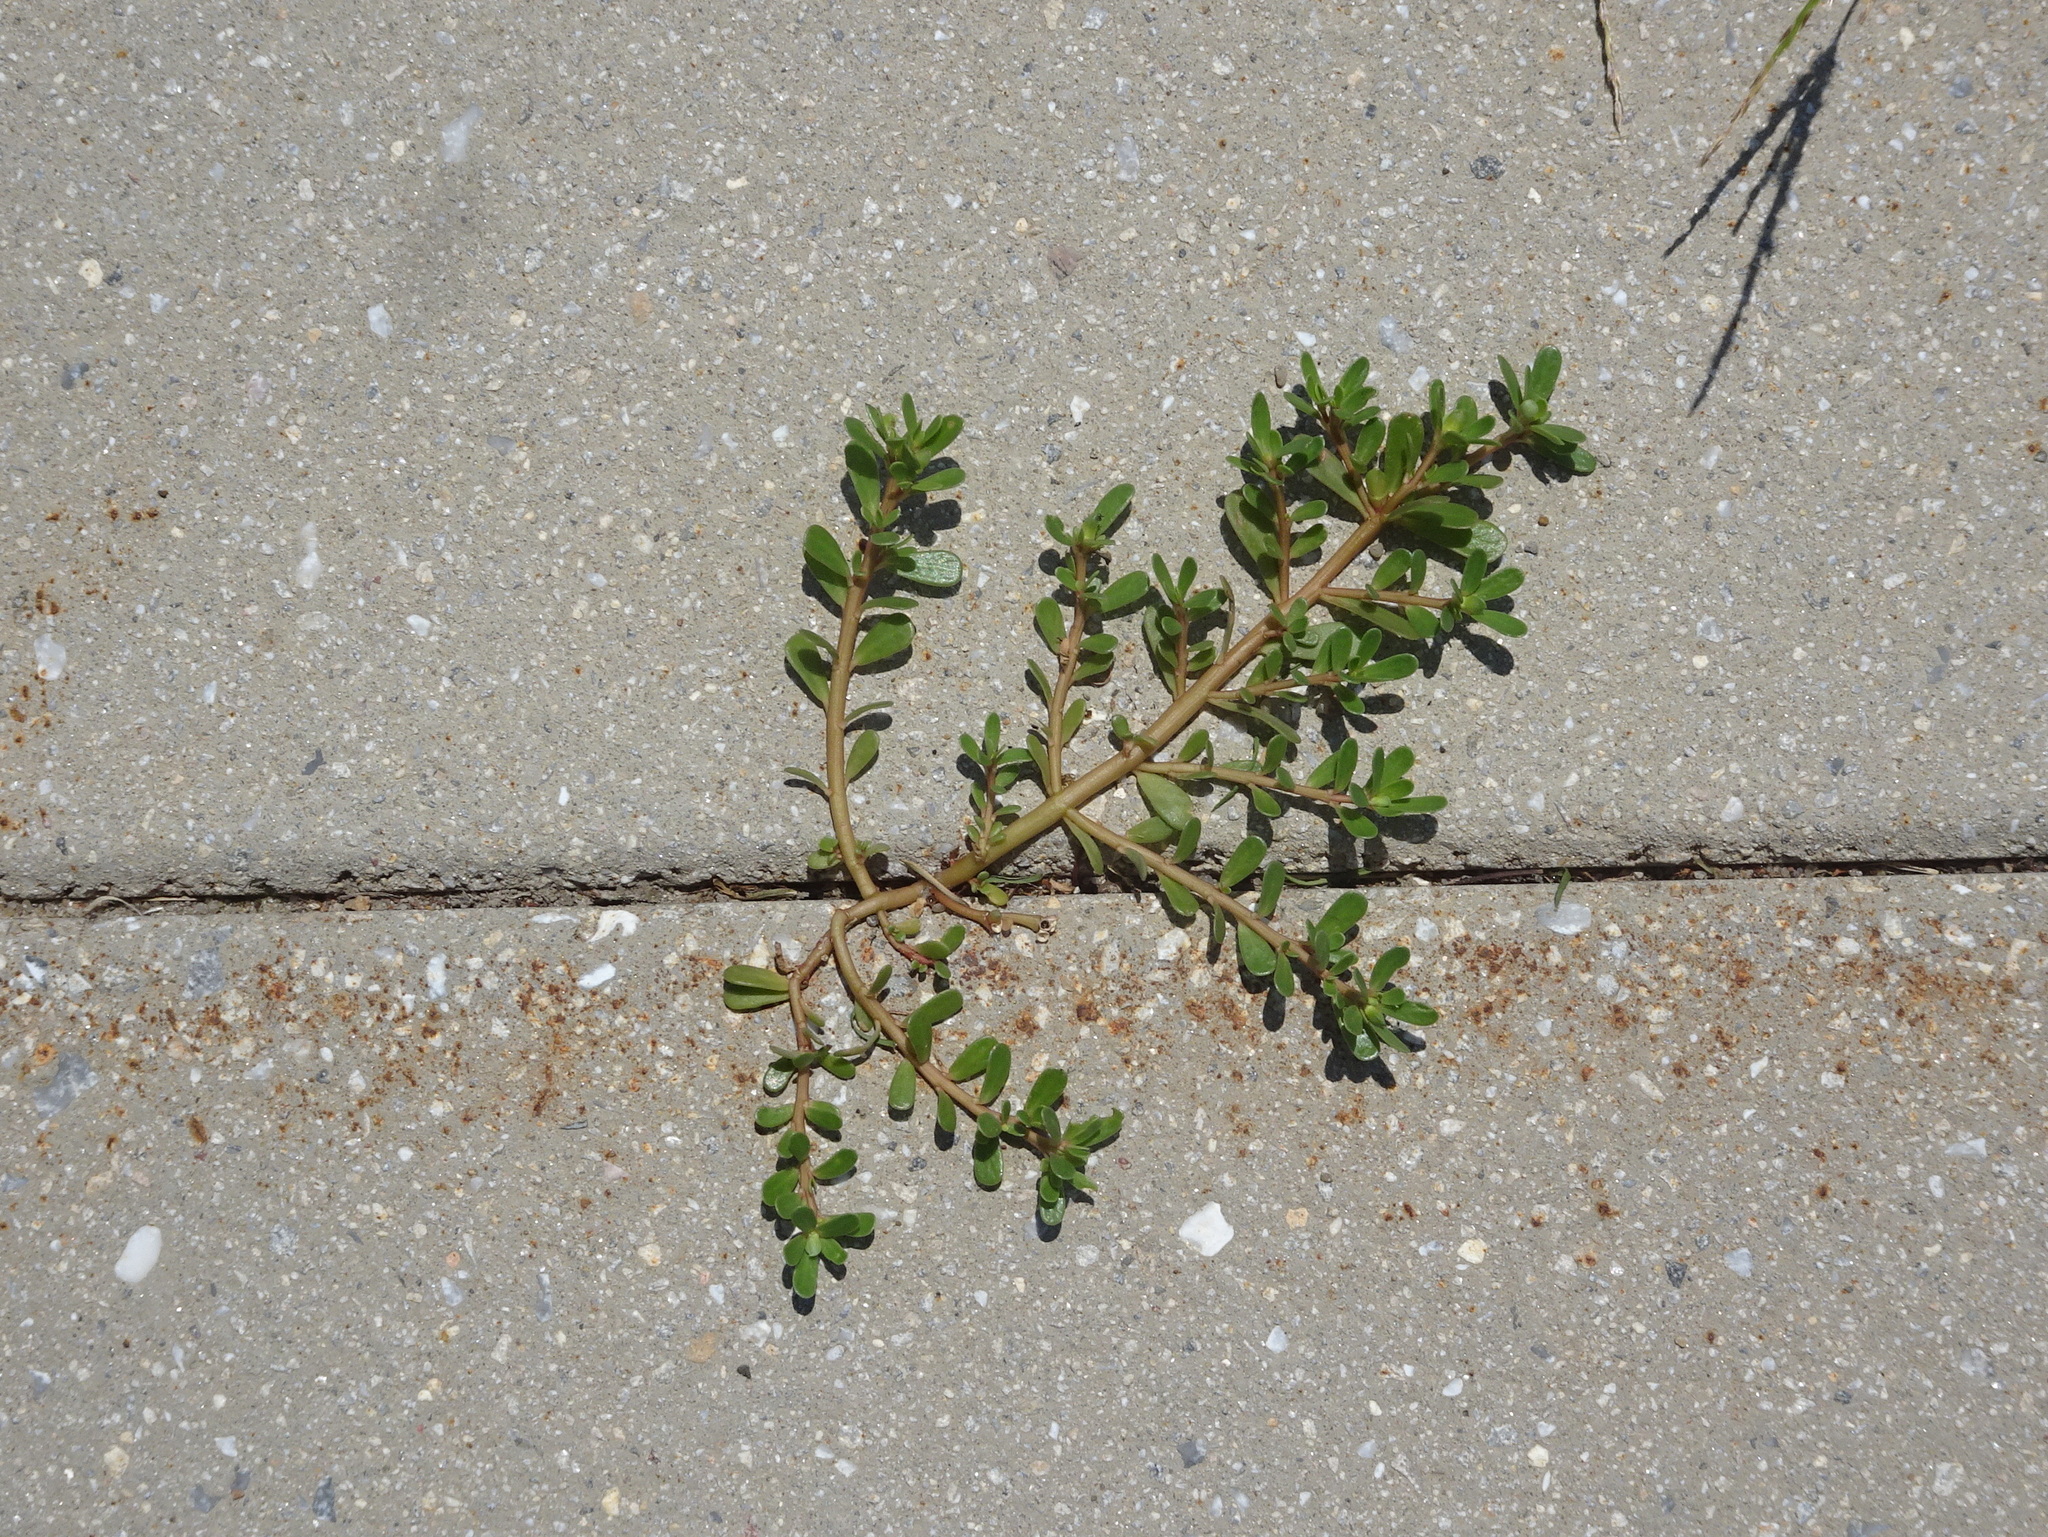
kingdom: Plantae
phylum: Tracheophyta
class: Magnoliopsida
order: Caryophyllales
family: Portulacaceae
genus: Portulaca
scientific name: Portulaca oleracea
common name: Common purslane
